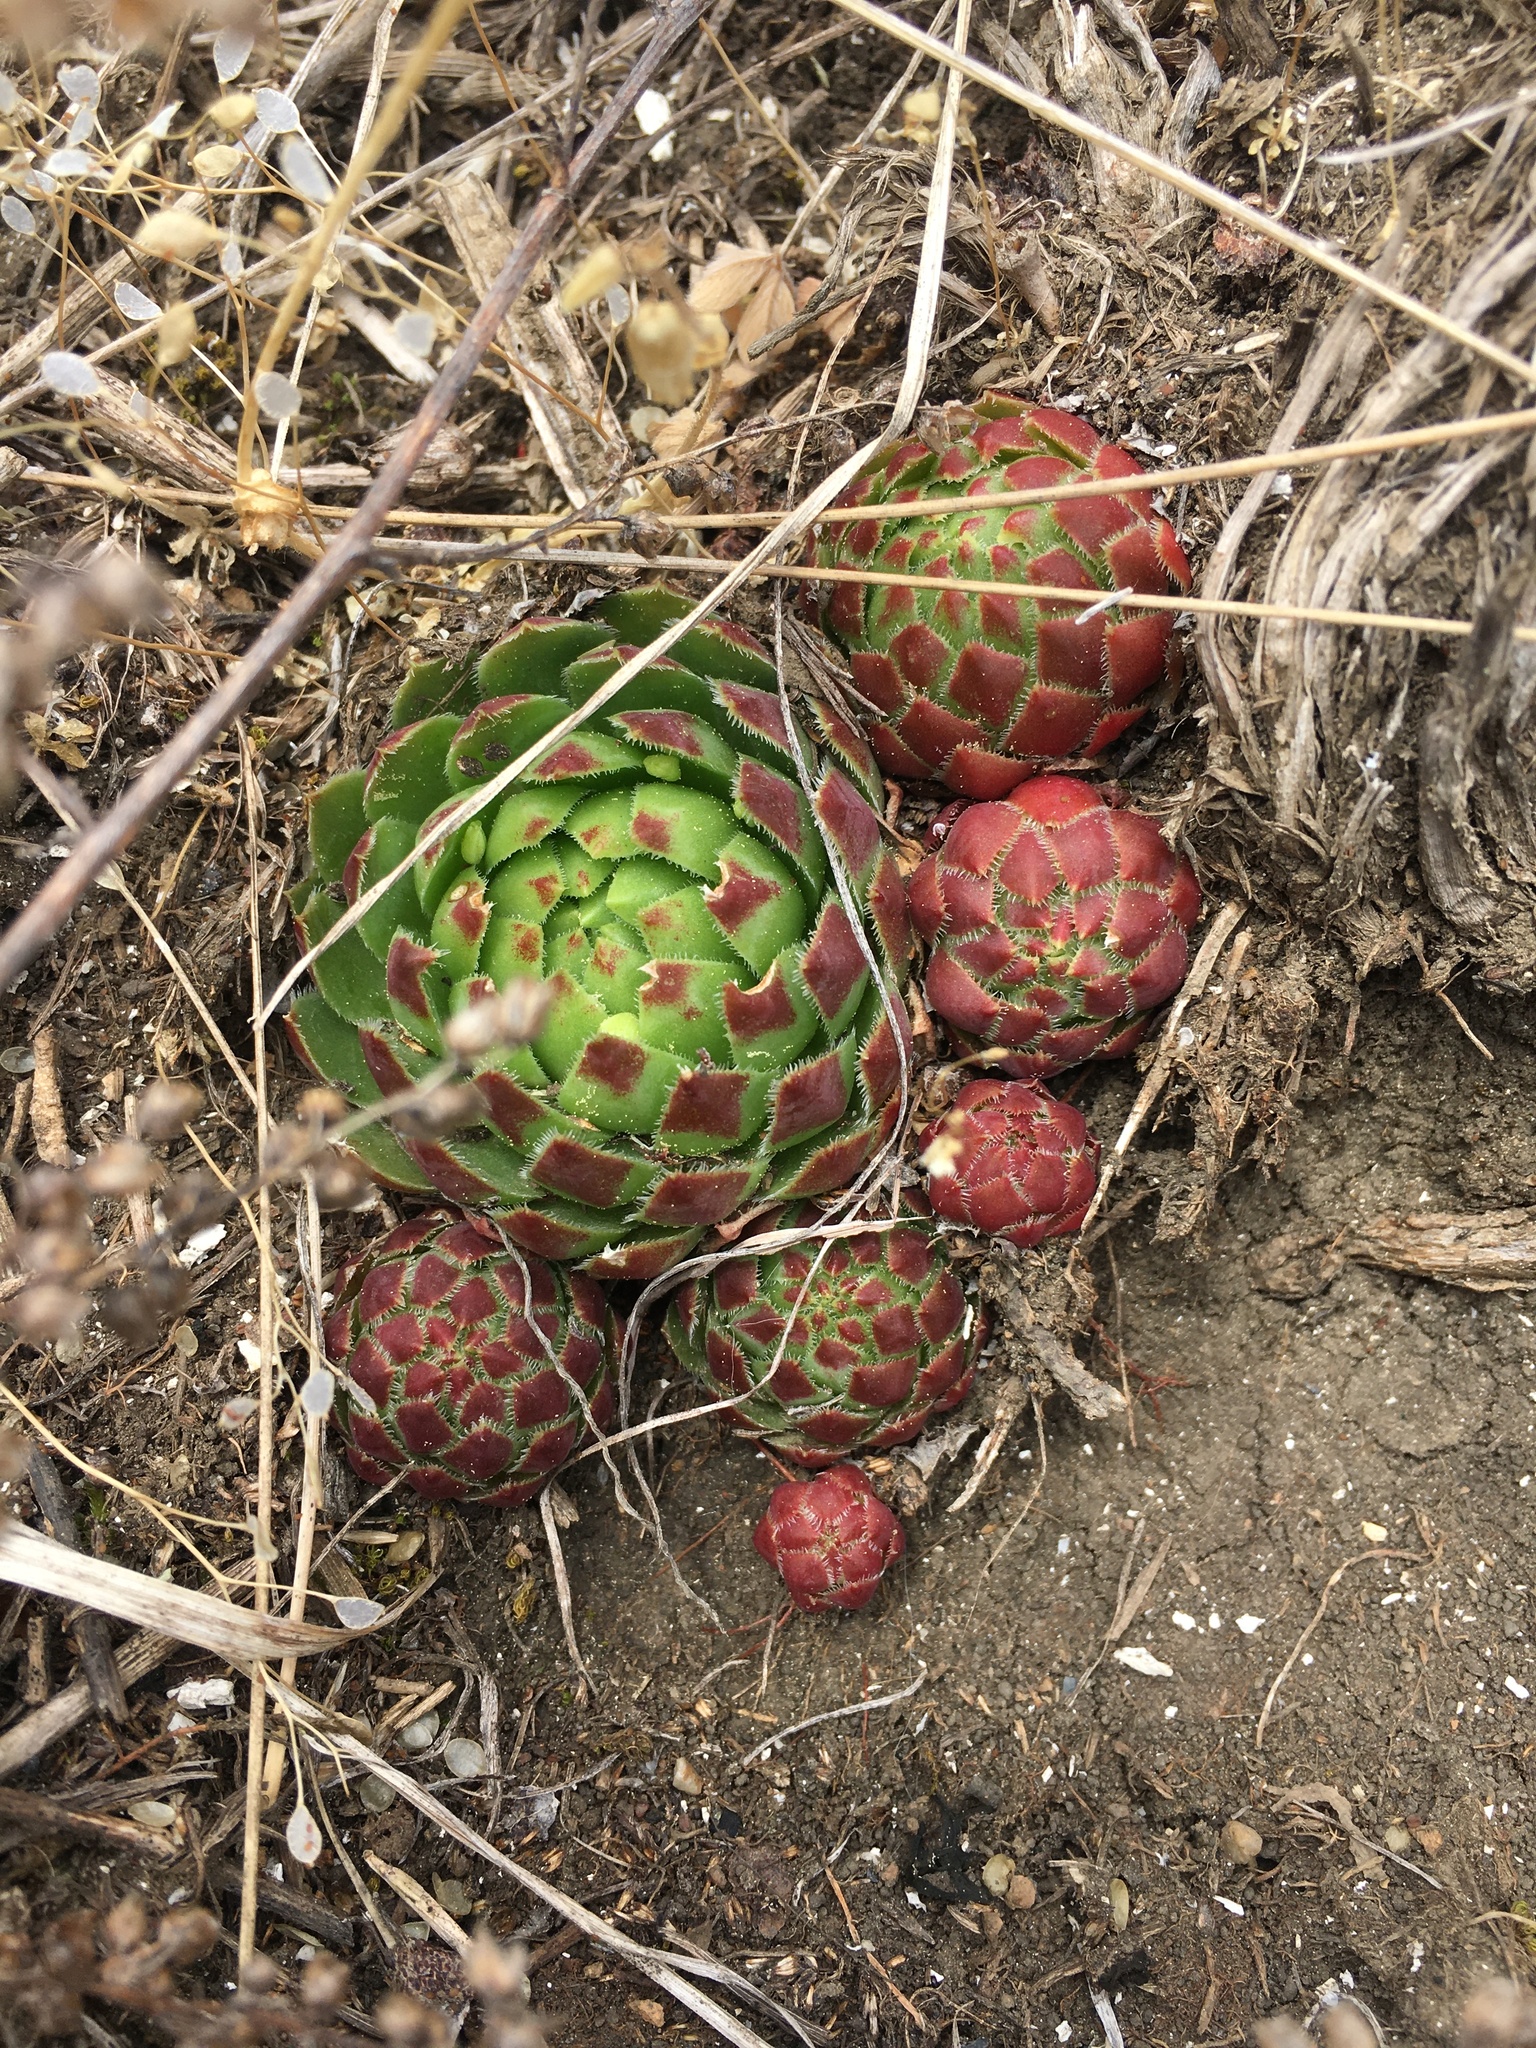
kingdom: Plantae
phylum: Tracheophyta
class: Magnoliopsida
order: Saxifragales
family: Crassulaceae
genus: Sempervivum
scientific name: Sempervivum globiferum
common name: Rolling hen-and-chicks
